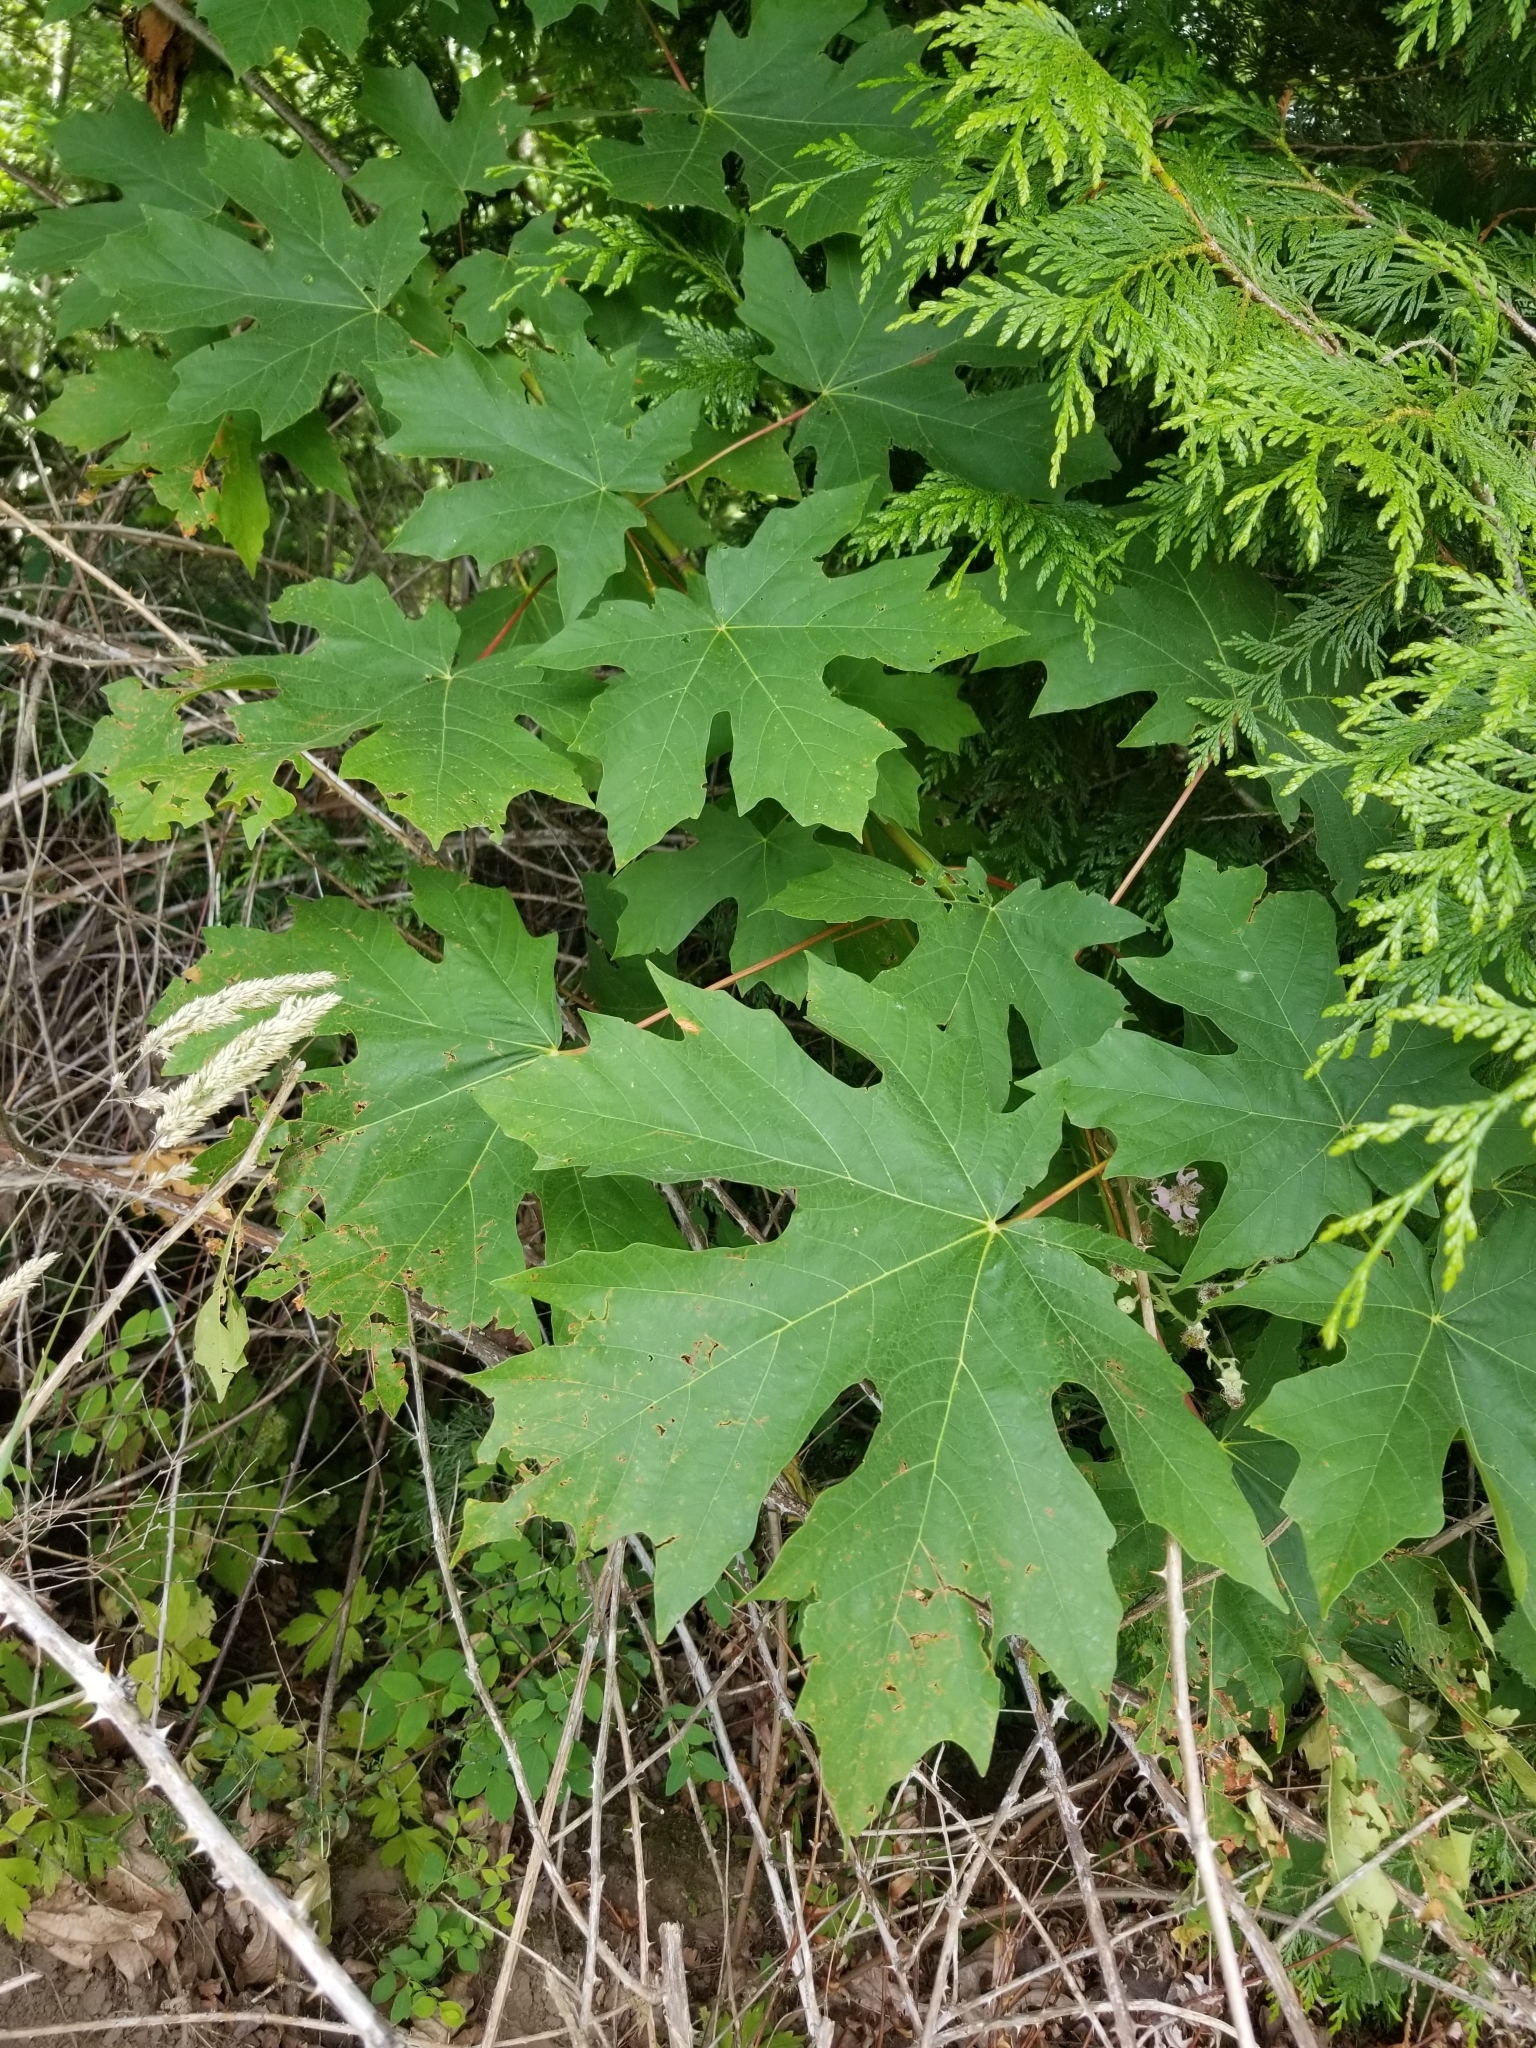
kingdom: Plantae
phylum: Tracheophyta
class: Magnoliopsida
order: Sapindales
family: Sapindaceae
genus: Acer
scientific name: Acer macrophyllum
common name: Oregon maple
